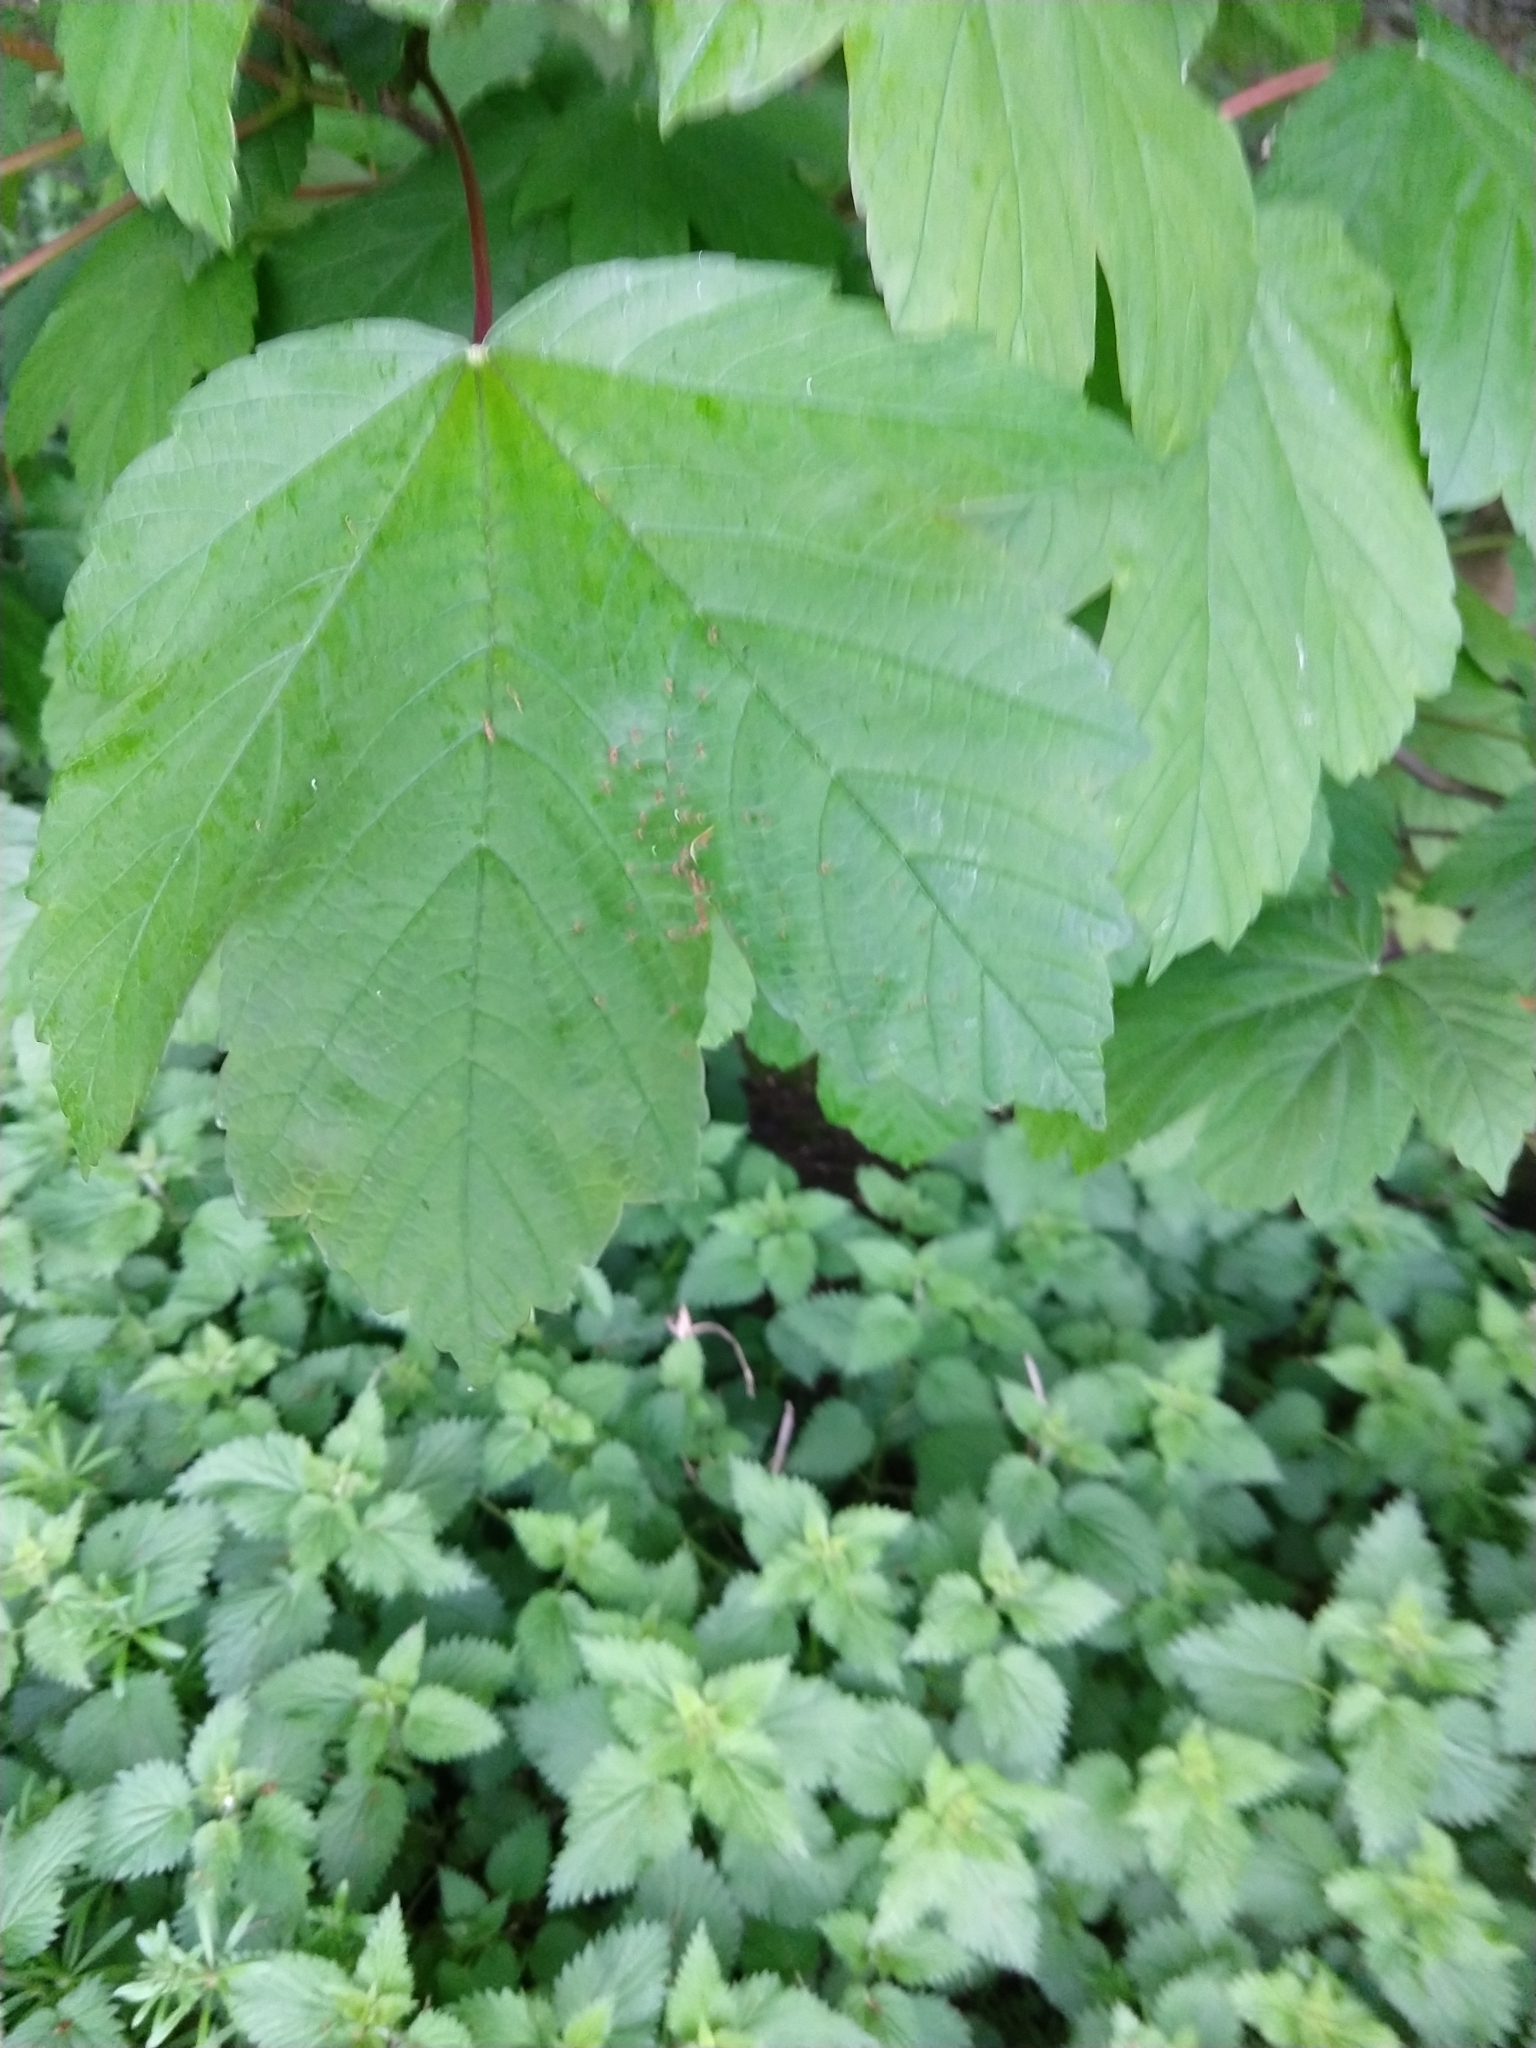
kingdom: Plantae
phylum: Tracheophyta
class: Magnoliopsida
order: Sapindales
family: Sapindaceae
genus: Acer
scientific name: Acer pseudoplatanus
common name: Sycamore
